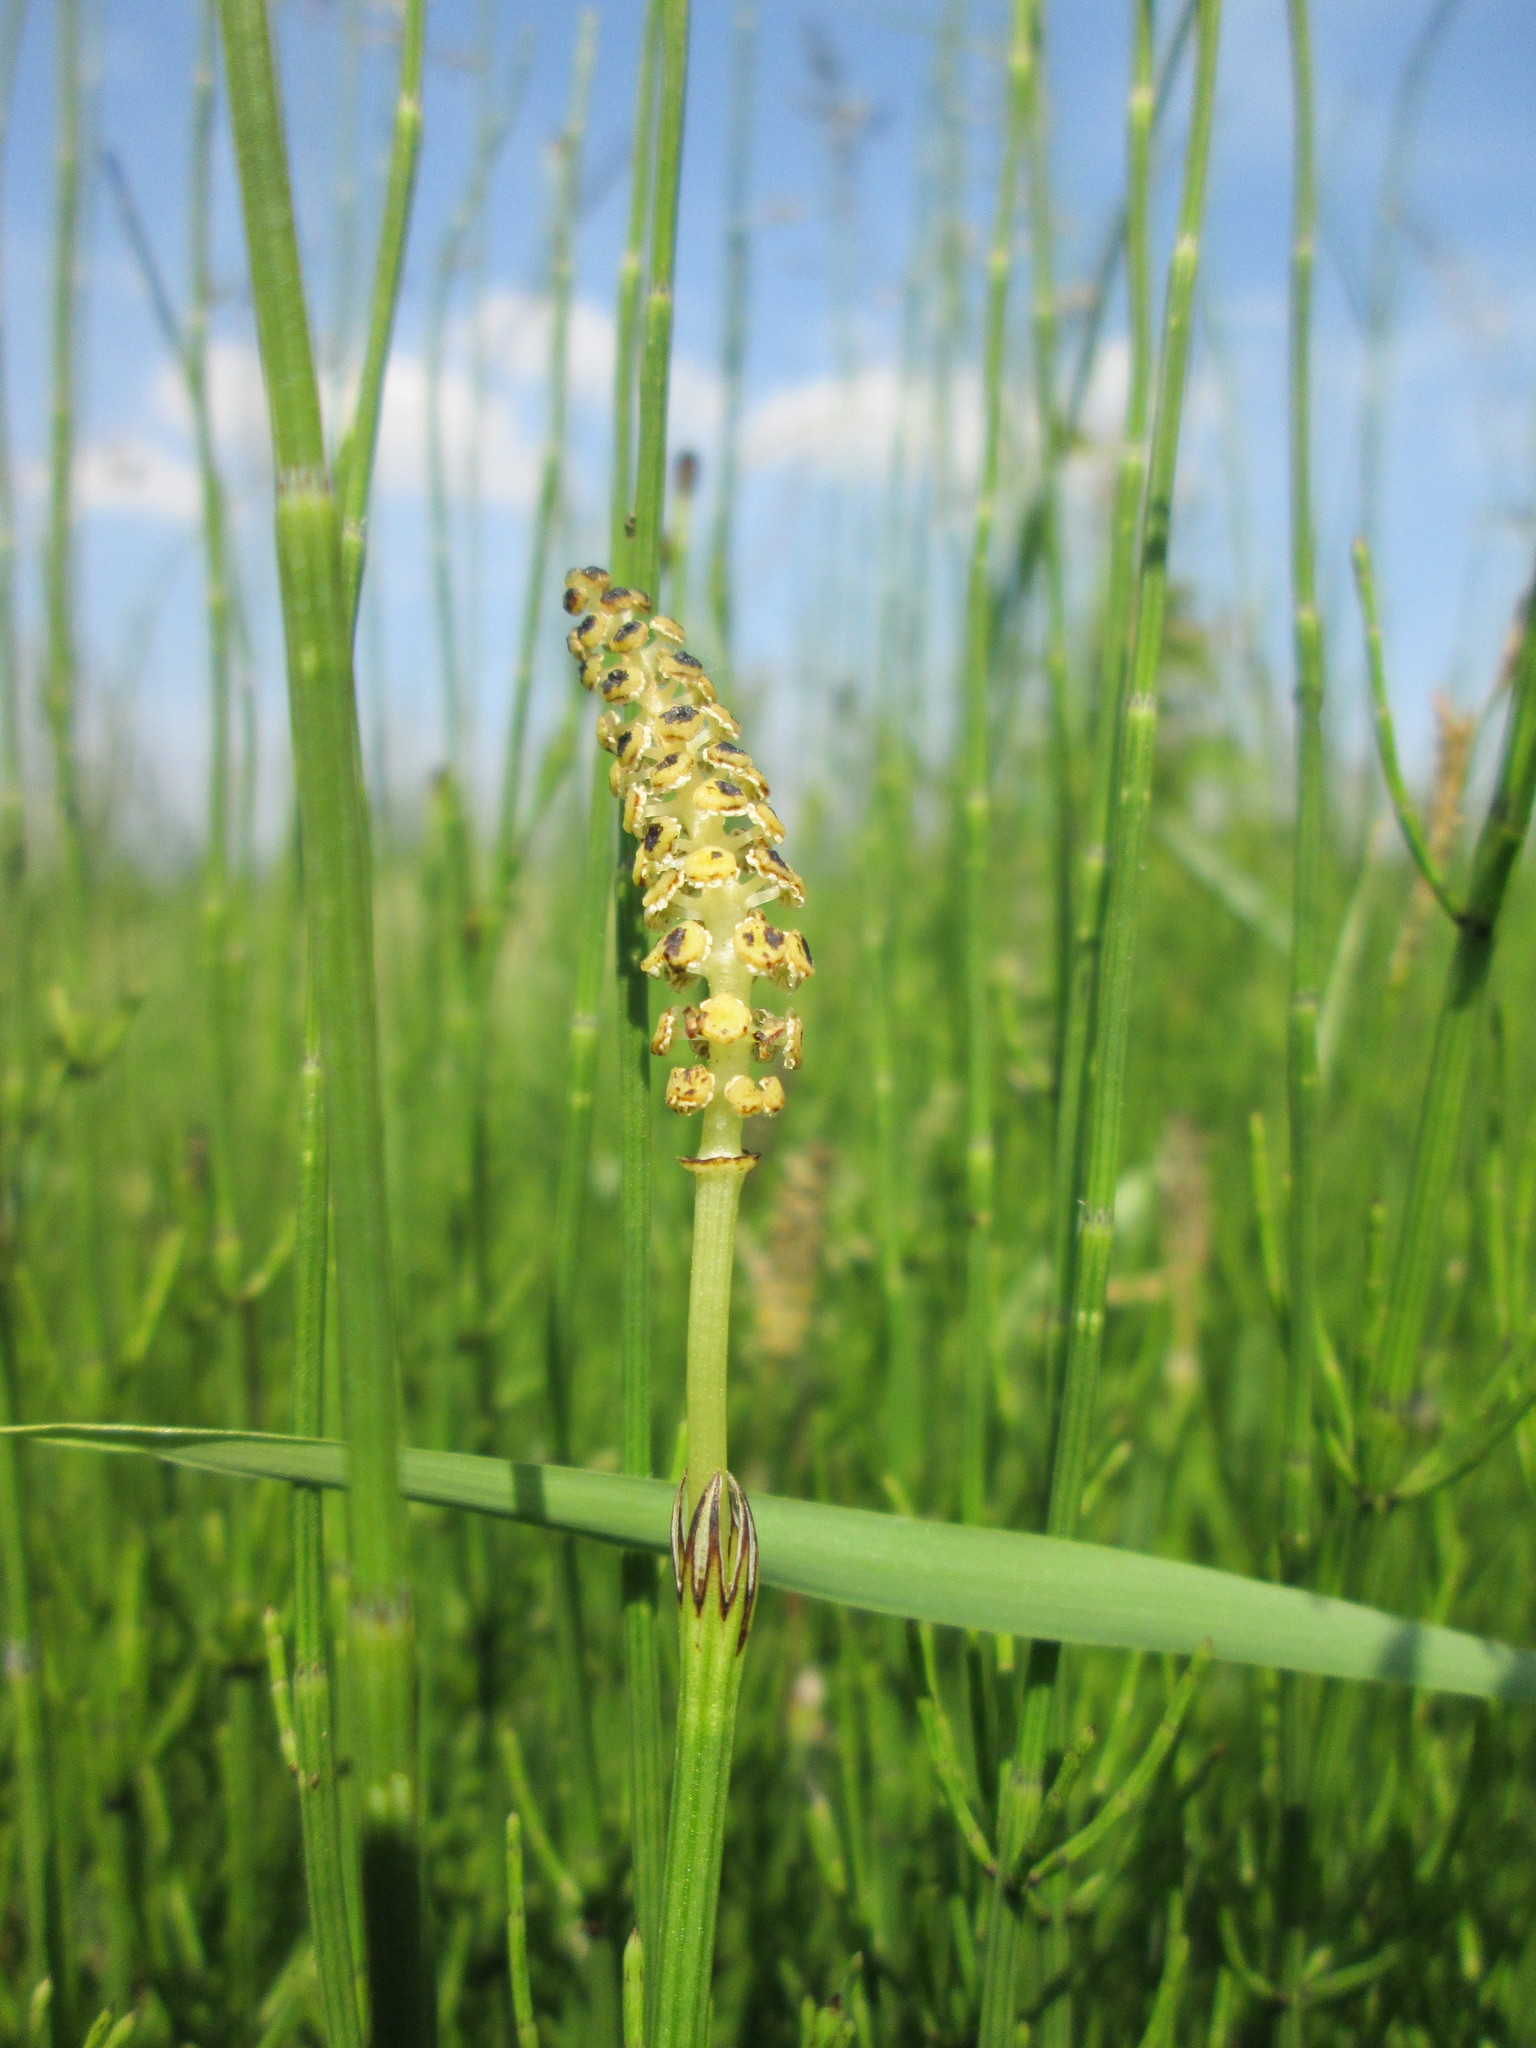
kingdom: Plantae
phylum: Tracheophyta
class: Polypodiopsida
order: Equisetales
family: Equisetaceae
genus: Equisetum
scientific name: Equisetum palustre
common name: Marsh horsetail
